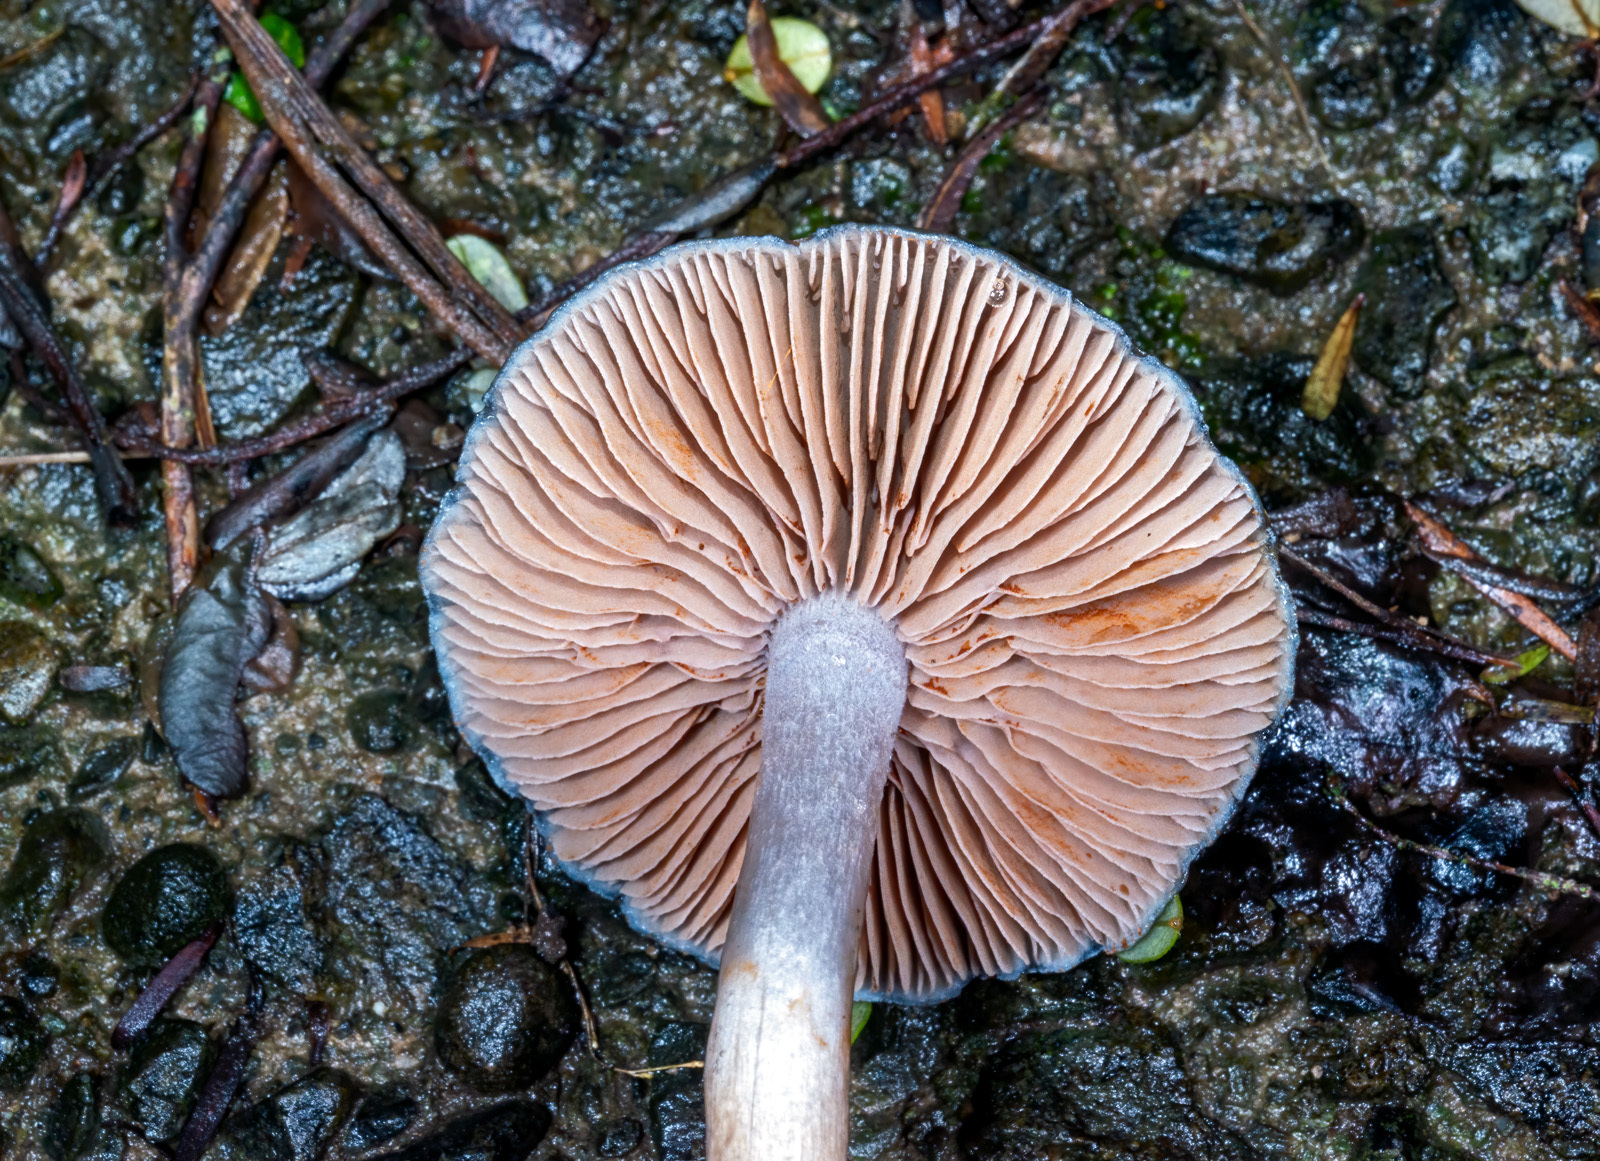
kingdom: Fungi
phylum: Basidiomycota
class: Agaricomycetes
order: Agaricales
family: Cortinariaceae
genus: Cortinarius
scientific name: Cortinarius rotundisporus
